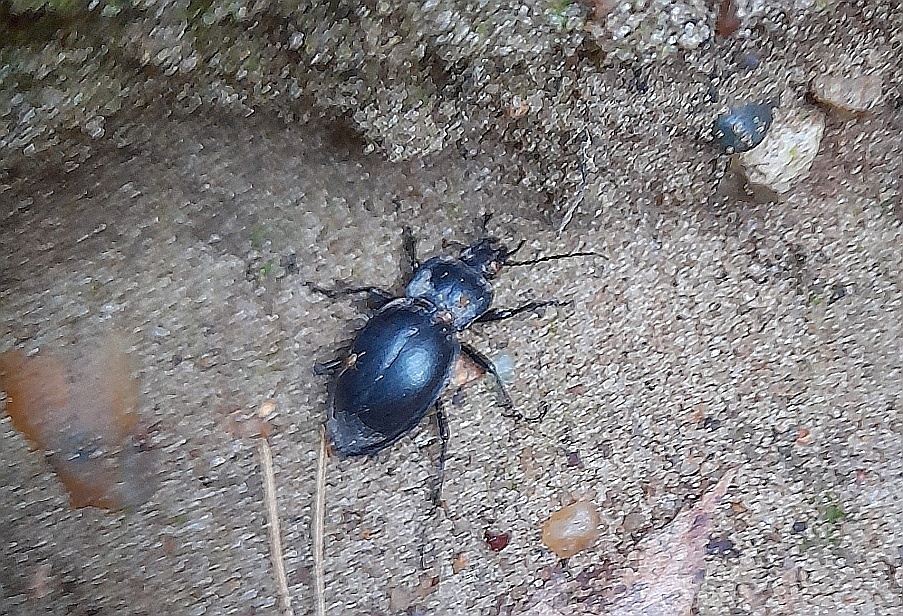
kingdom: Animalia
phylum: Arthropoda
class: Insecta
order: Coleoptera
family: Carabidae
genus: Carabus
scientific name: Carabus glabratus
